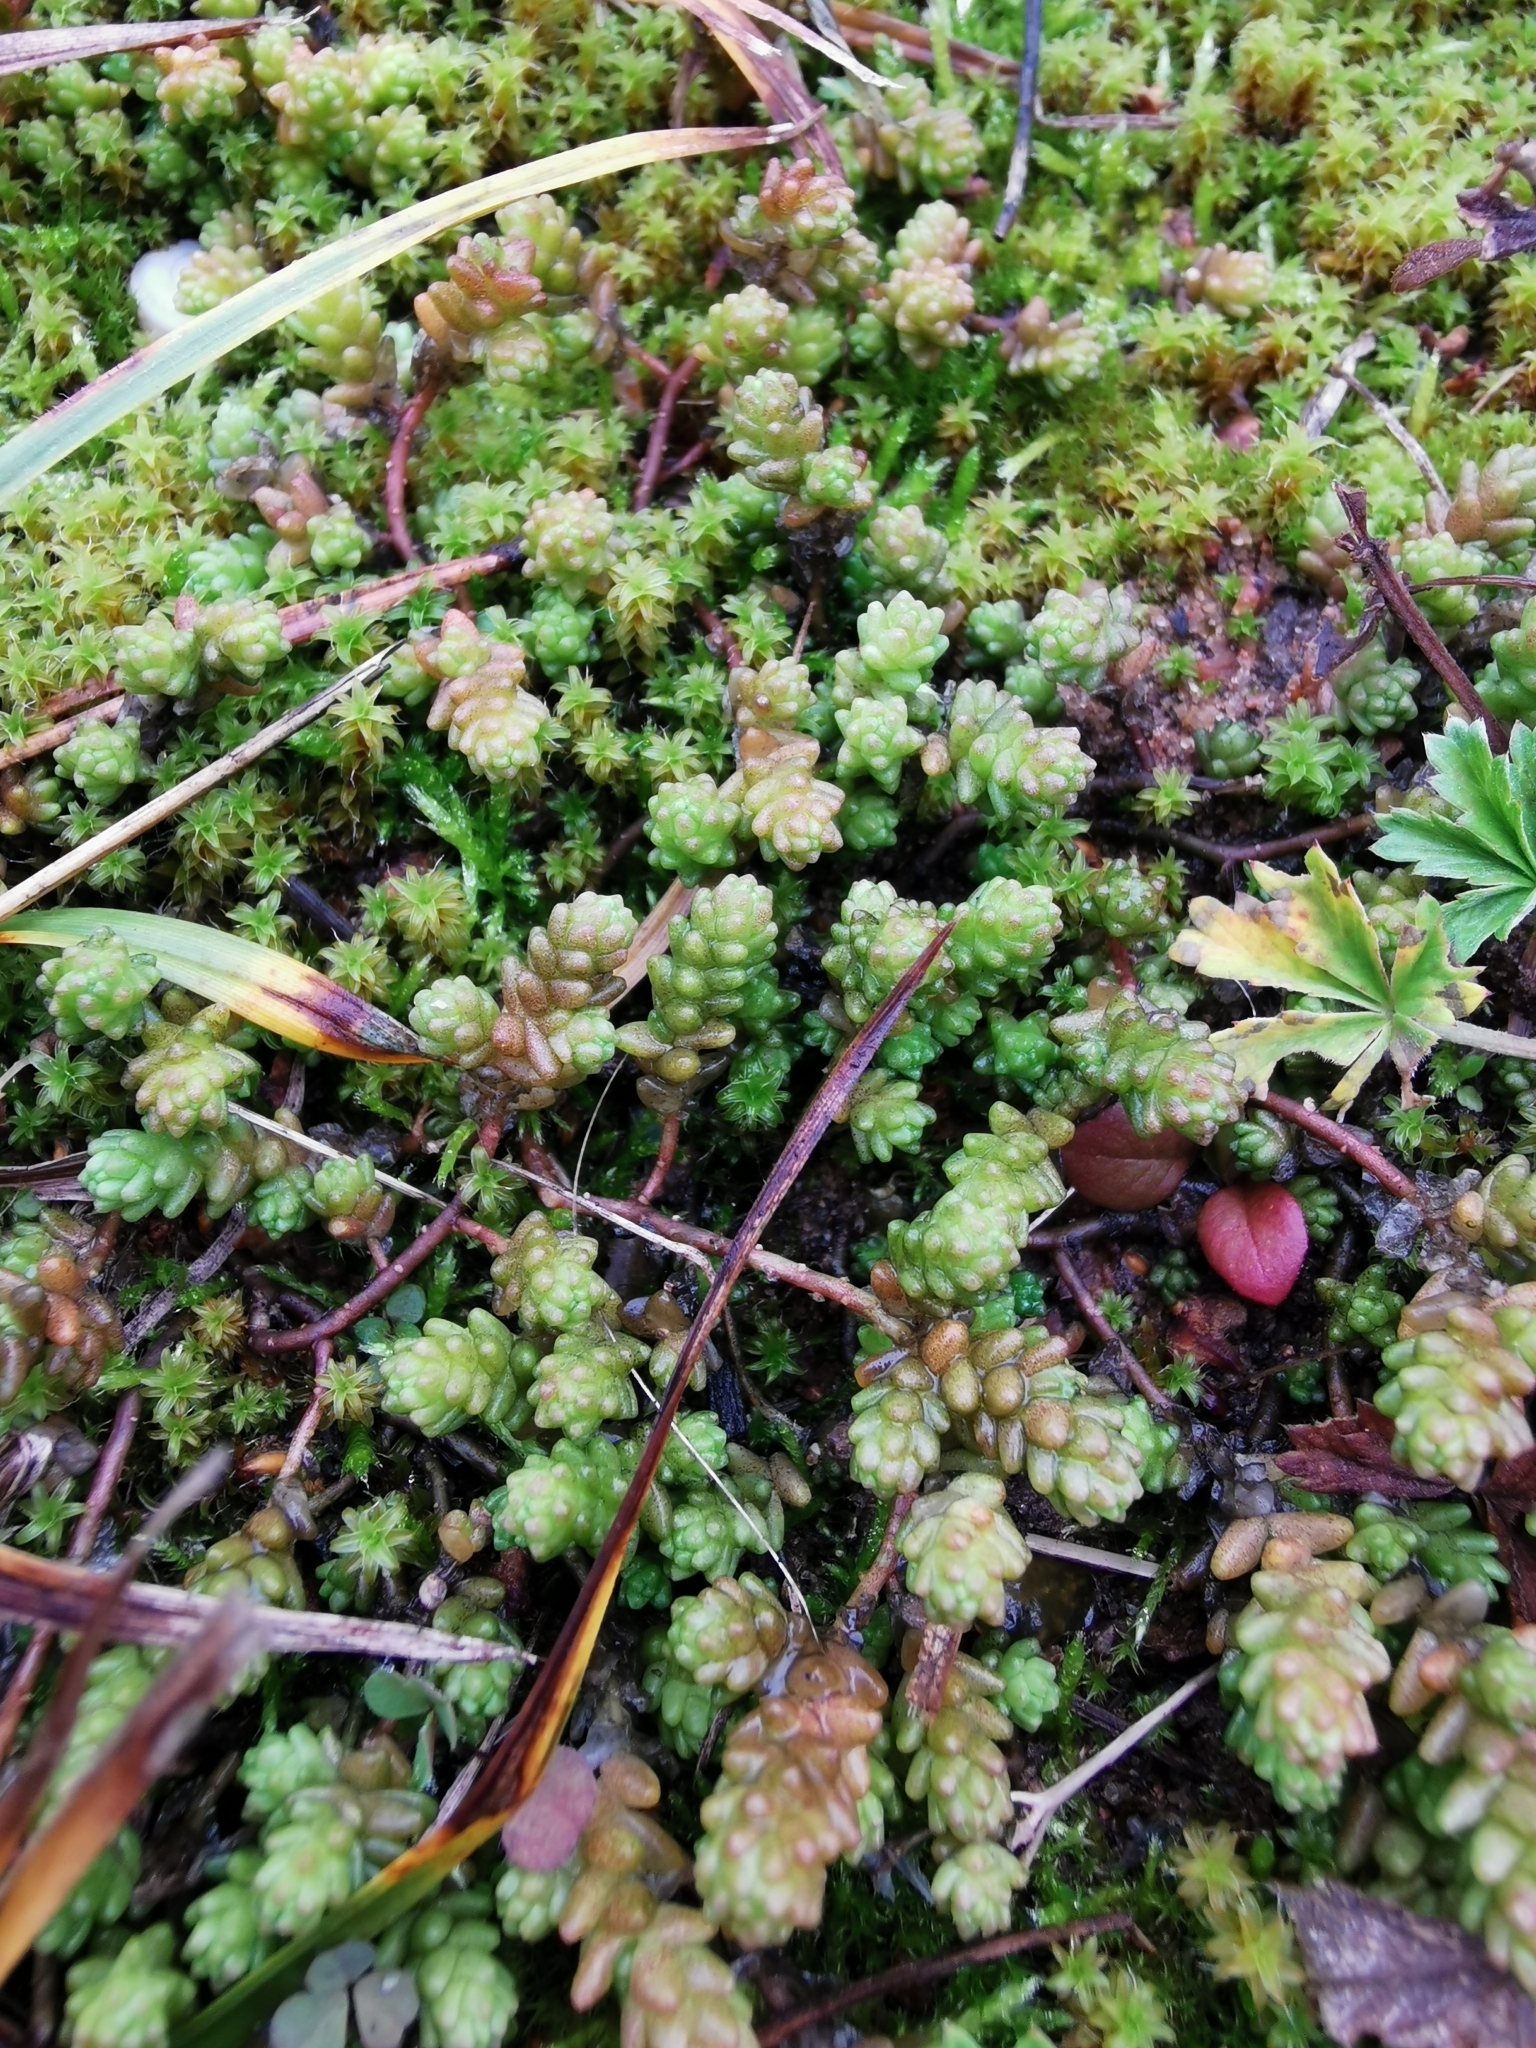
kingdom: Plantae
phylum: Tracheophyta
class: Magnoliopsida
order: Saxifragales
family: Crassulaceae
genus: Sedum
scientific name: Sedum acre
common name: Biting stonecrop
